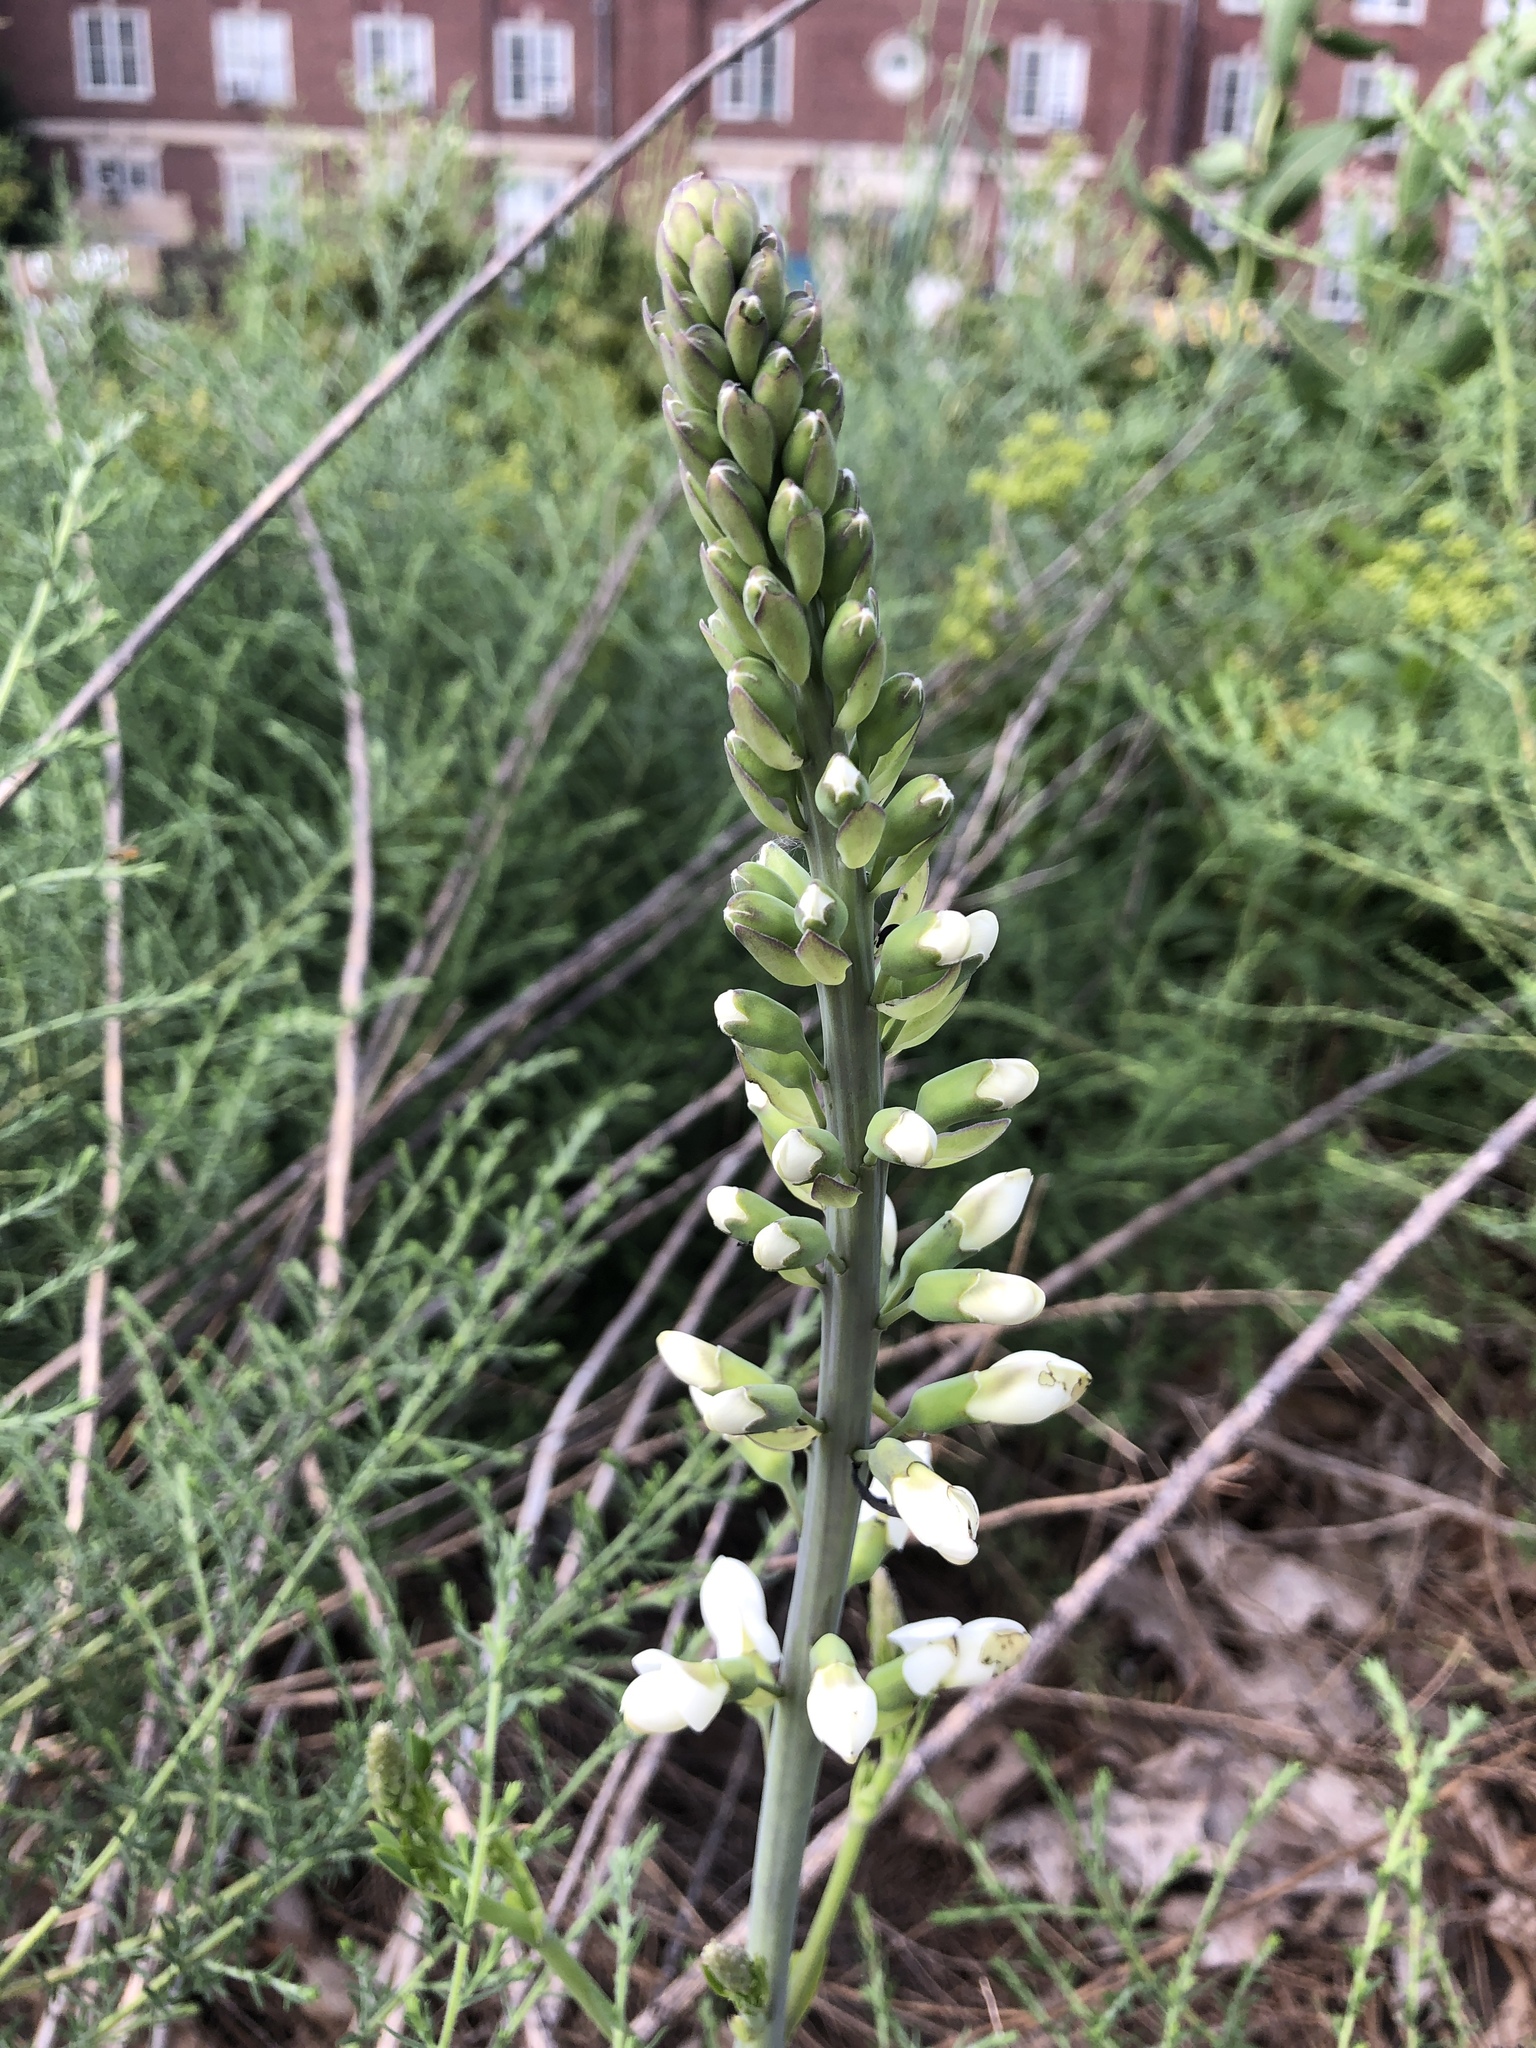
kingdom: Plantae
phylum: Tracheophyta
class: Magnoliopsida
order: Fabales
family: Fabaceae
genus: Baptisia
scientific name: Baptisia alba
